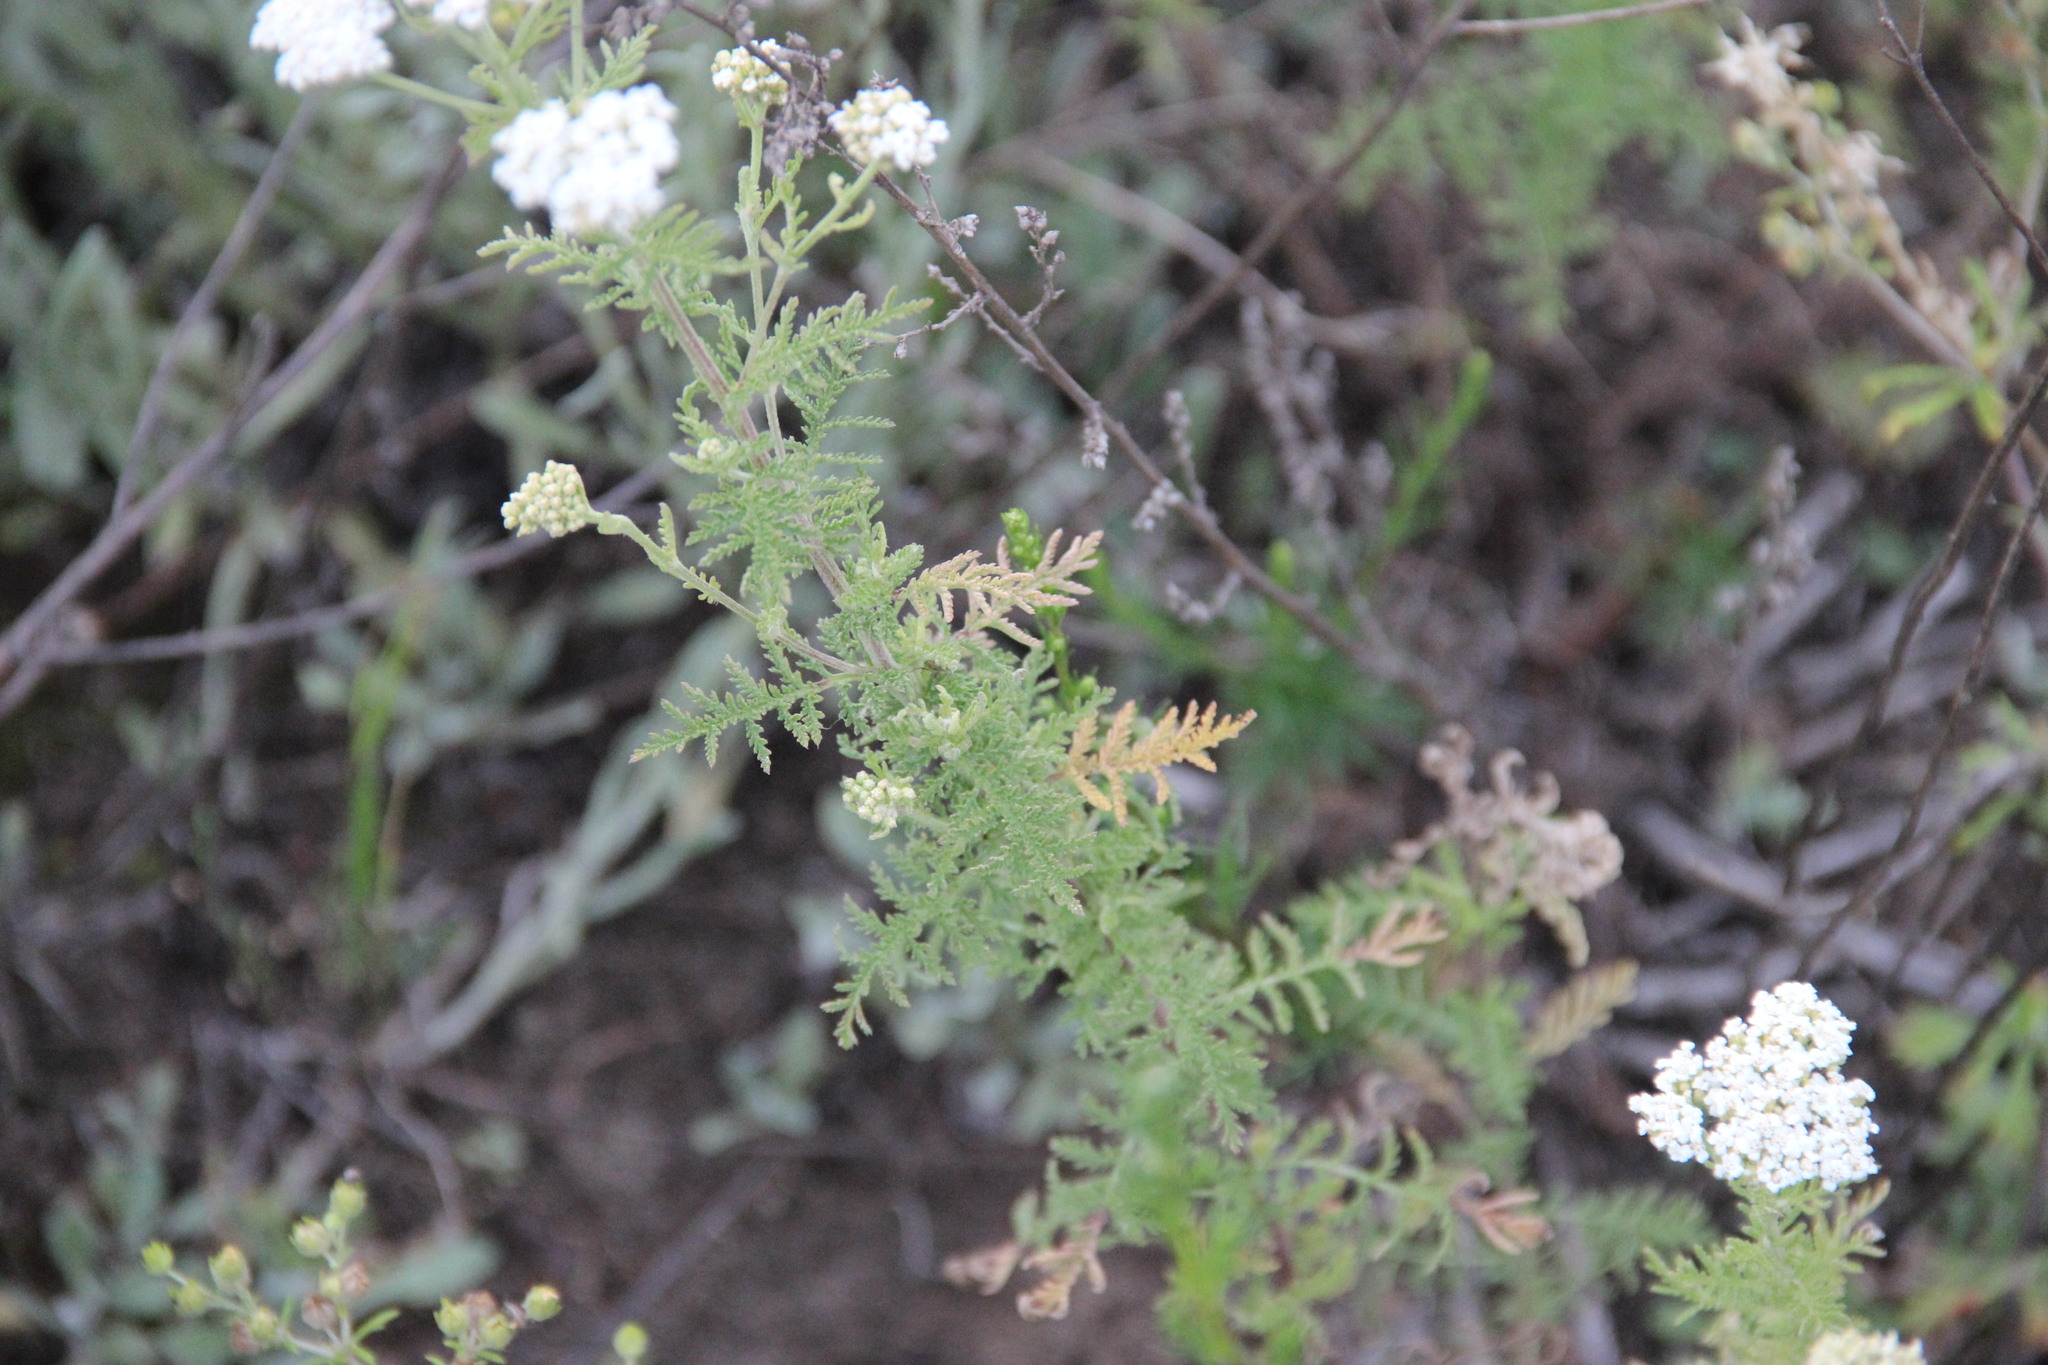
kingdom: Plantae
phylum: Tracheophyta
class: Magnoliopsida
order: Asterales
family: Asteraceae
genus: Achillea
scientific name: Achillea nobilis
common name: Noble yarrow
